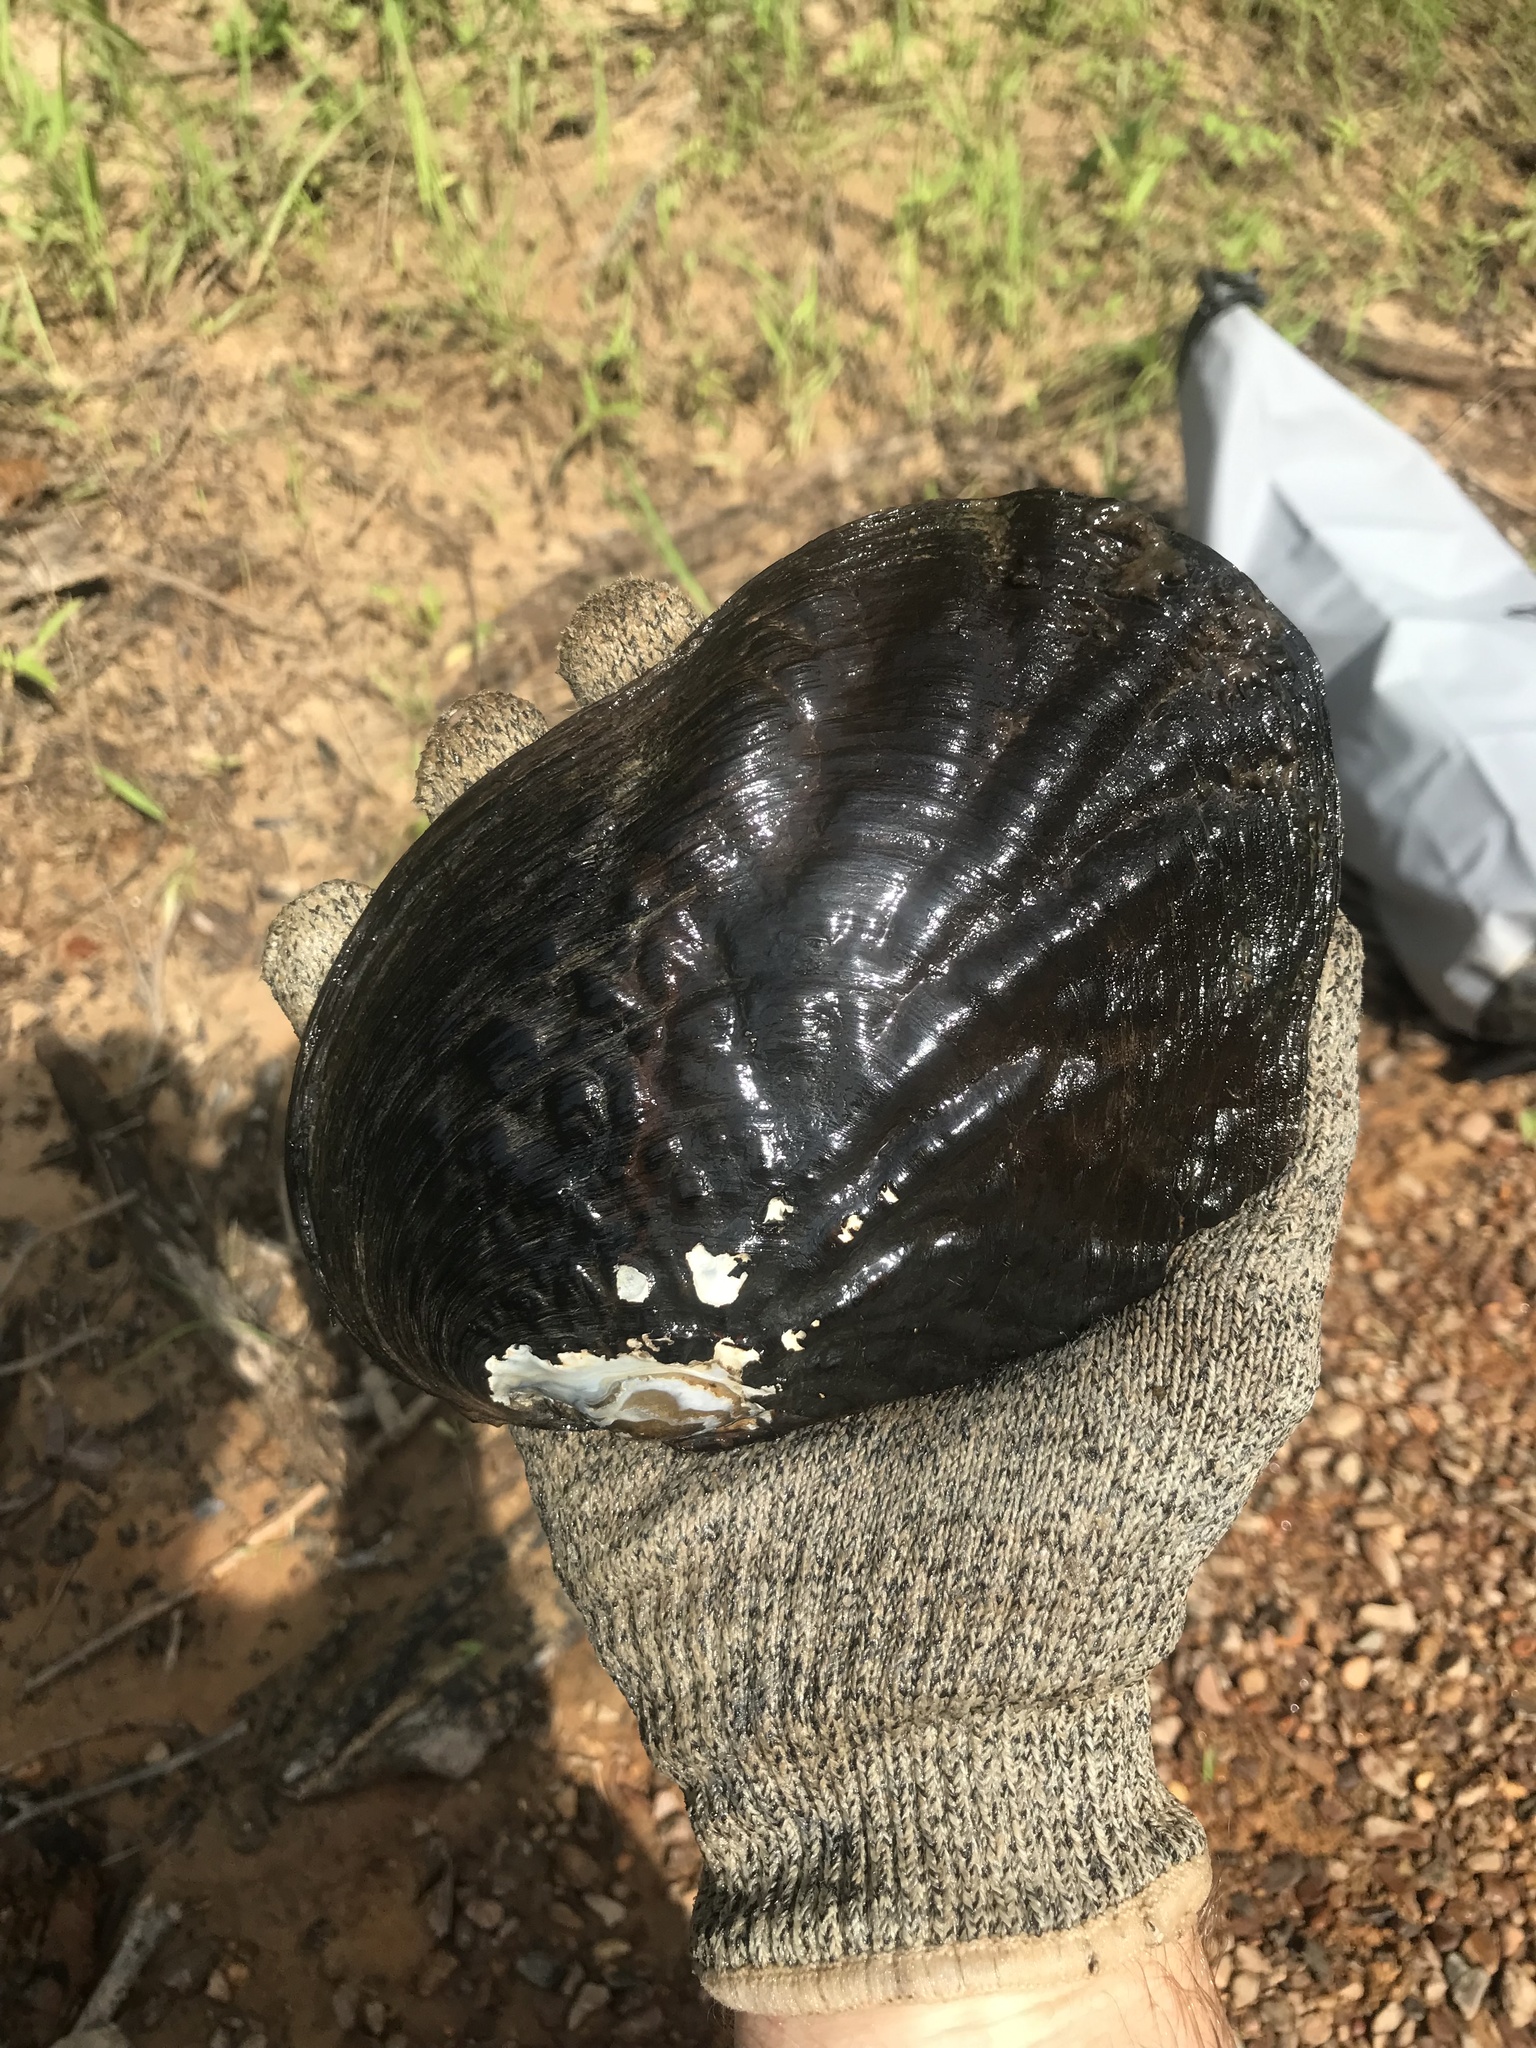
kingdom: Animalia
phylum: Mollusca
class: Bivalvia
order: Unionida
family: Unionidae
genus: Megalonaias
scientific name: Megalonaias nervosa
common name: Washboard
